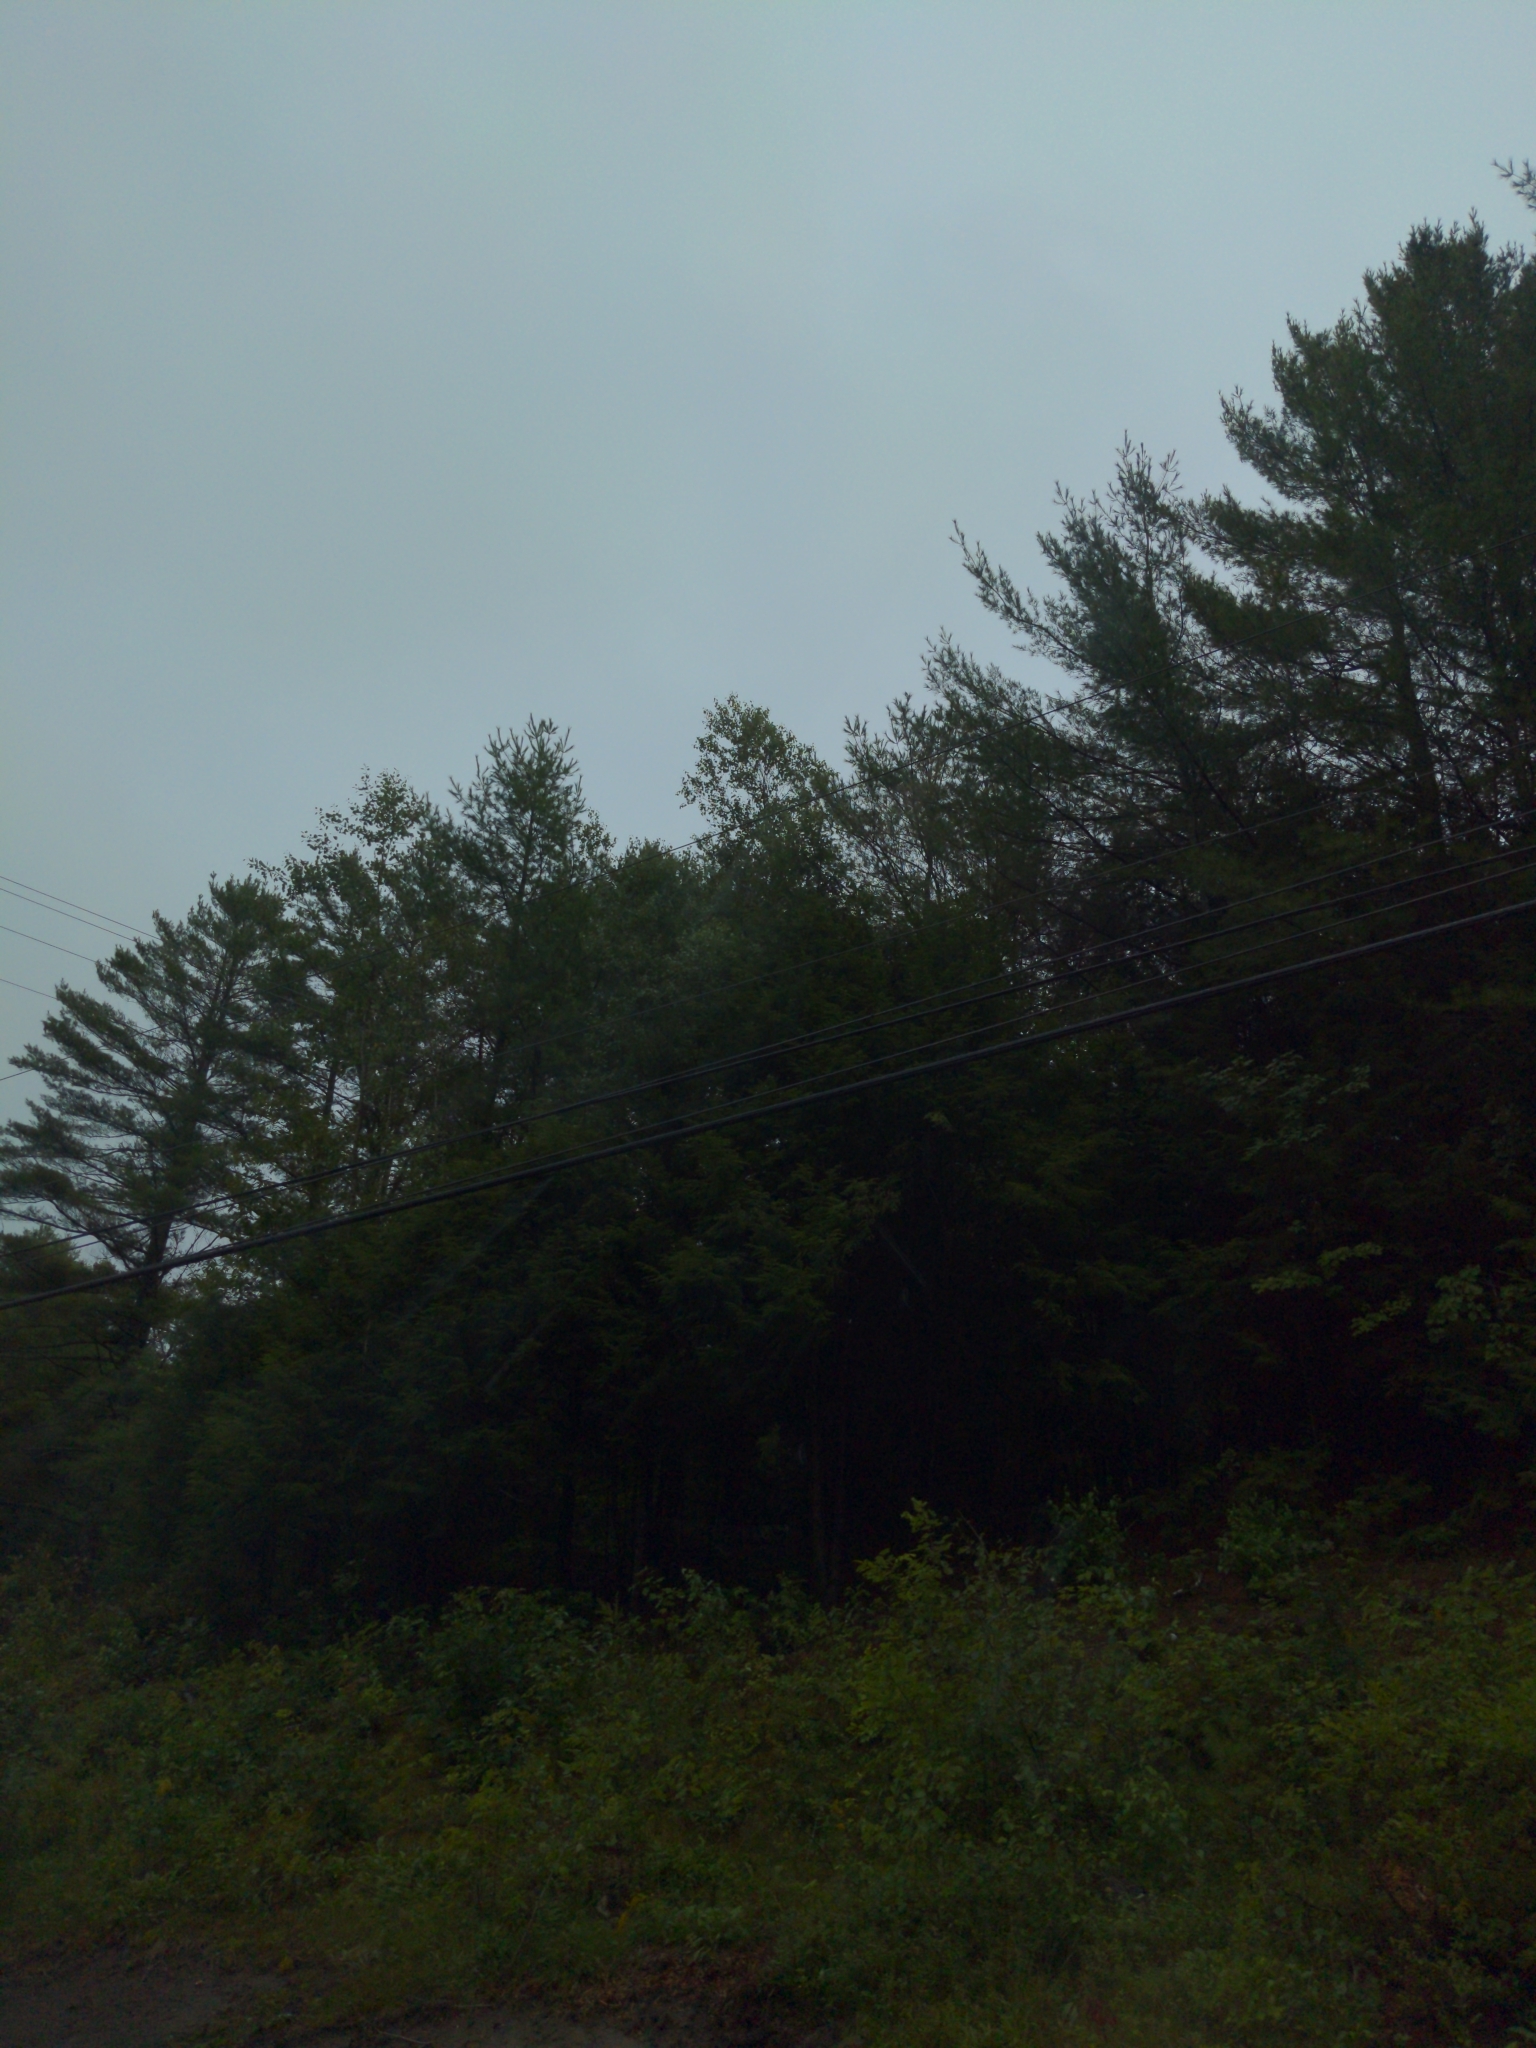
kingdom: Plantae
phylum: Tracheophyta
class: Pinopsida
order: Pinales
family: Pinaceae
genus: Pinus
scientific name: Pinus strobus
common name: Weymouth pine
